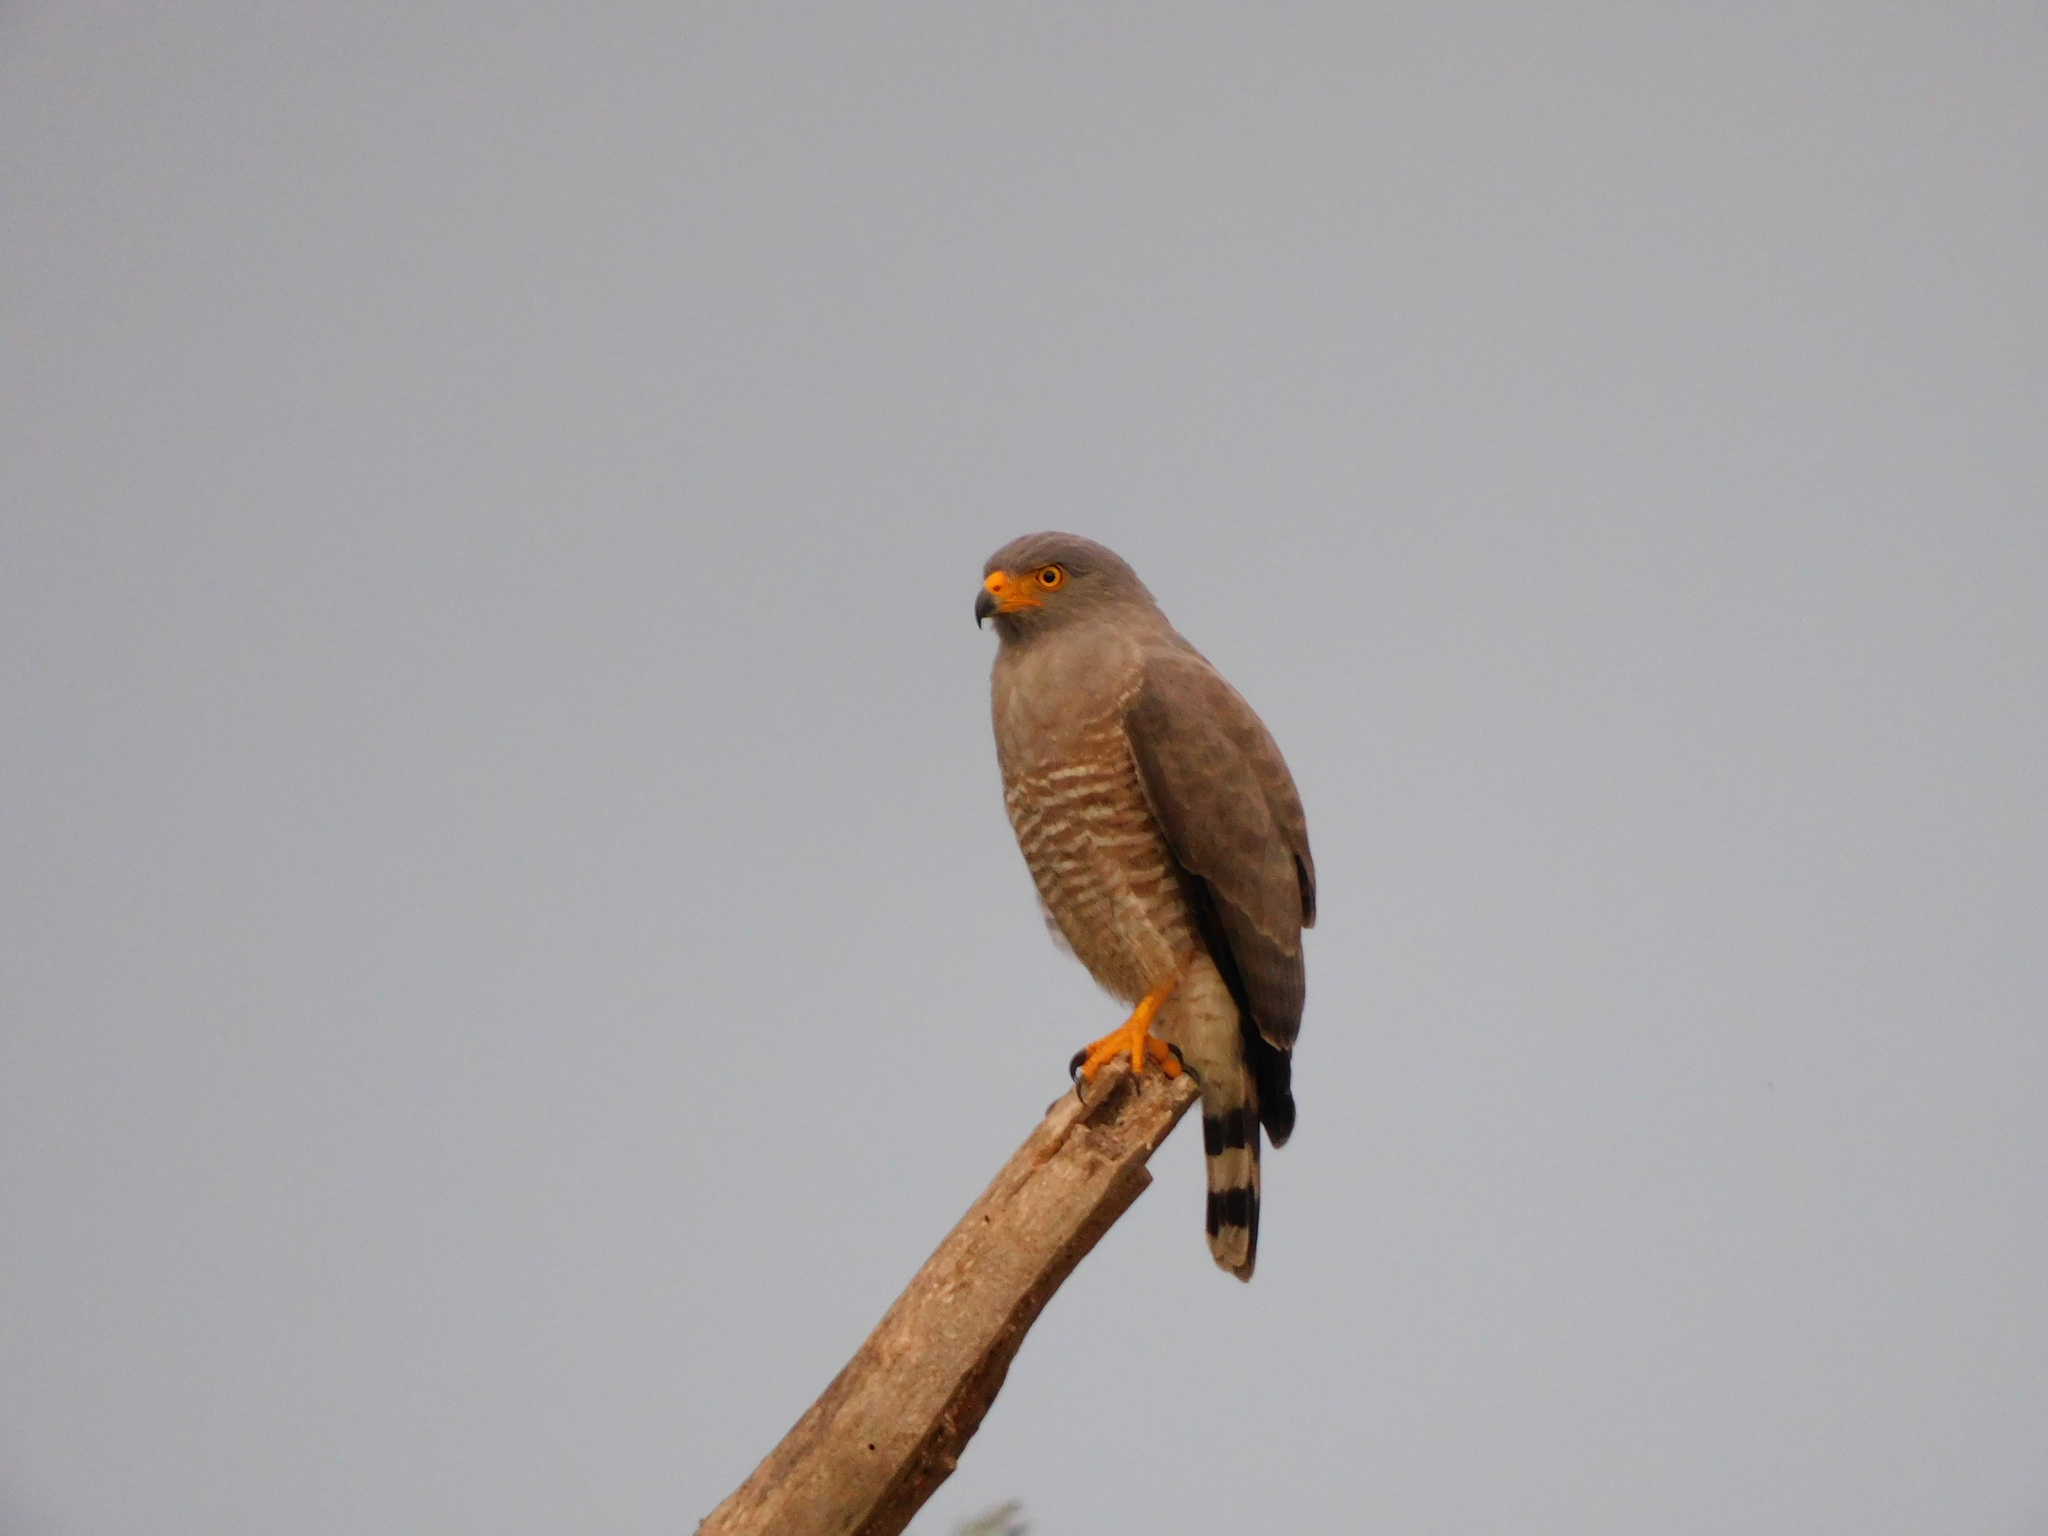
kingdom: Animalia
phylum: Chordata
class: Aves
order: Accipitriformes
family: Accipitridae
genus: Rupornis
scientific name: Rupornis magnirostris
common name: Roadside hawk
